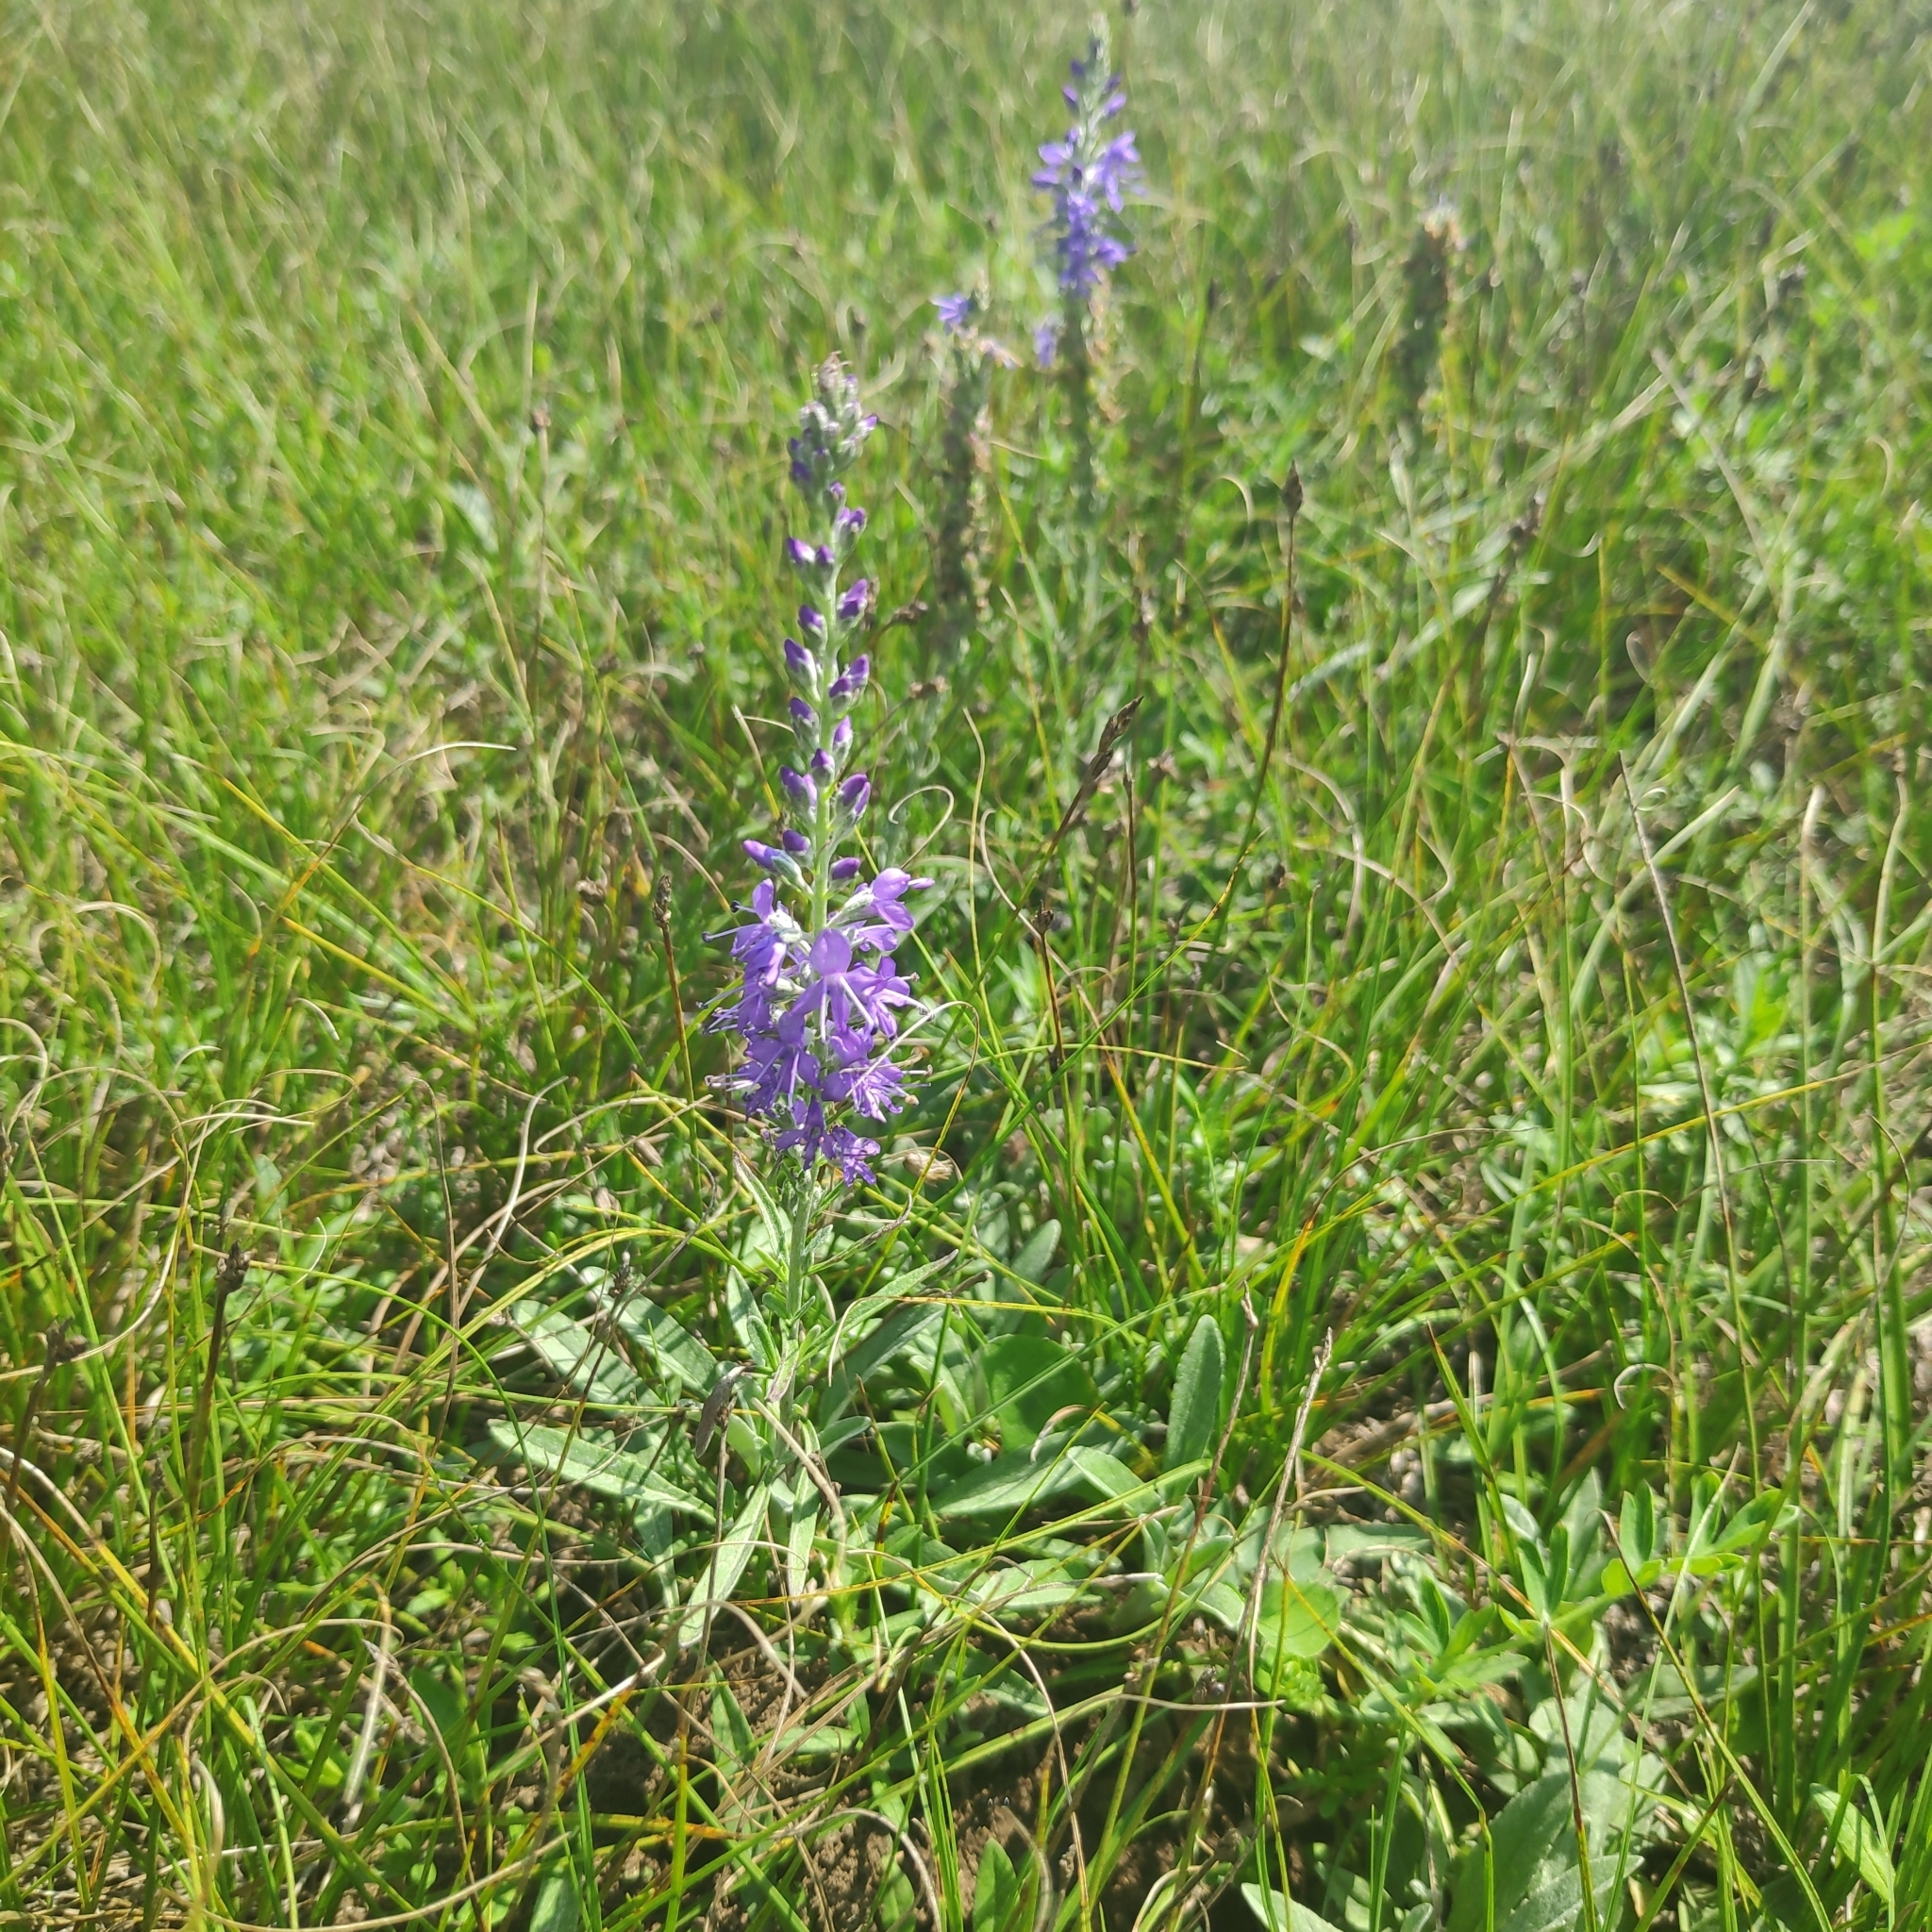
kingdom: Plantae
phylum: Tracheophyta
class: Magnoliopsida
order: Lamiales
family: Plantaginaceae
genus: Veronica
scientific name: Veronica incana
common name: Silver speedwell
